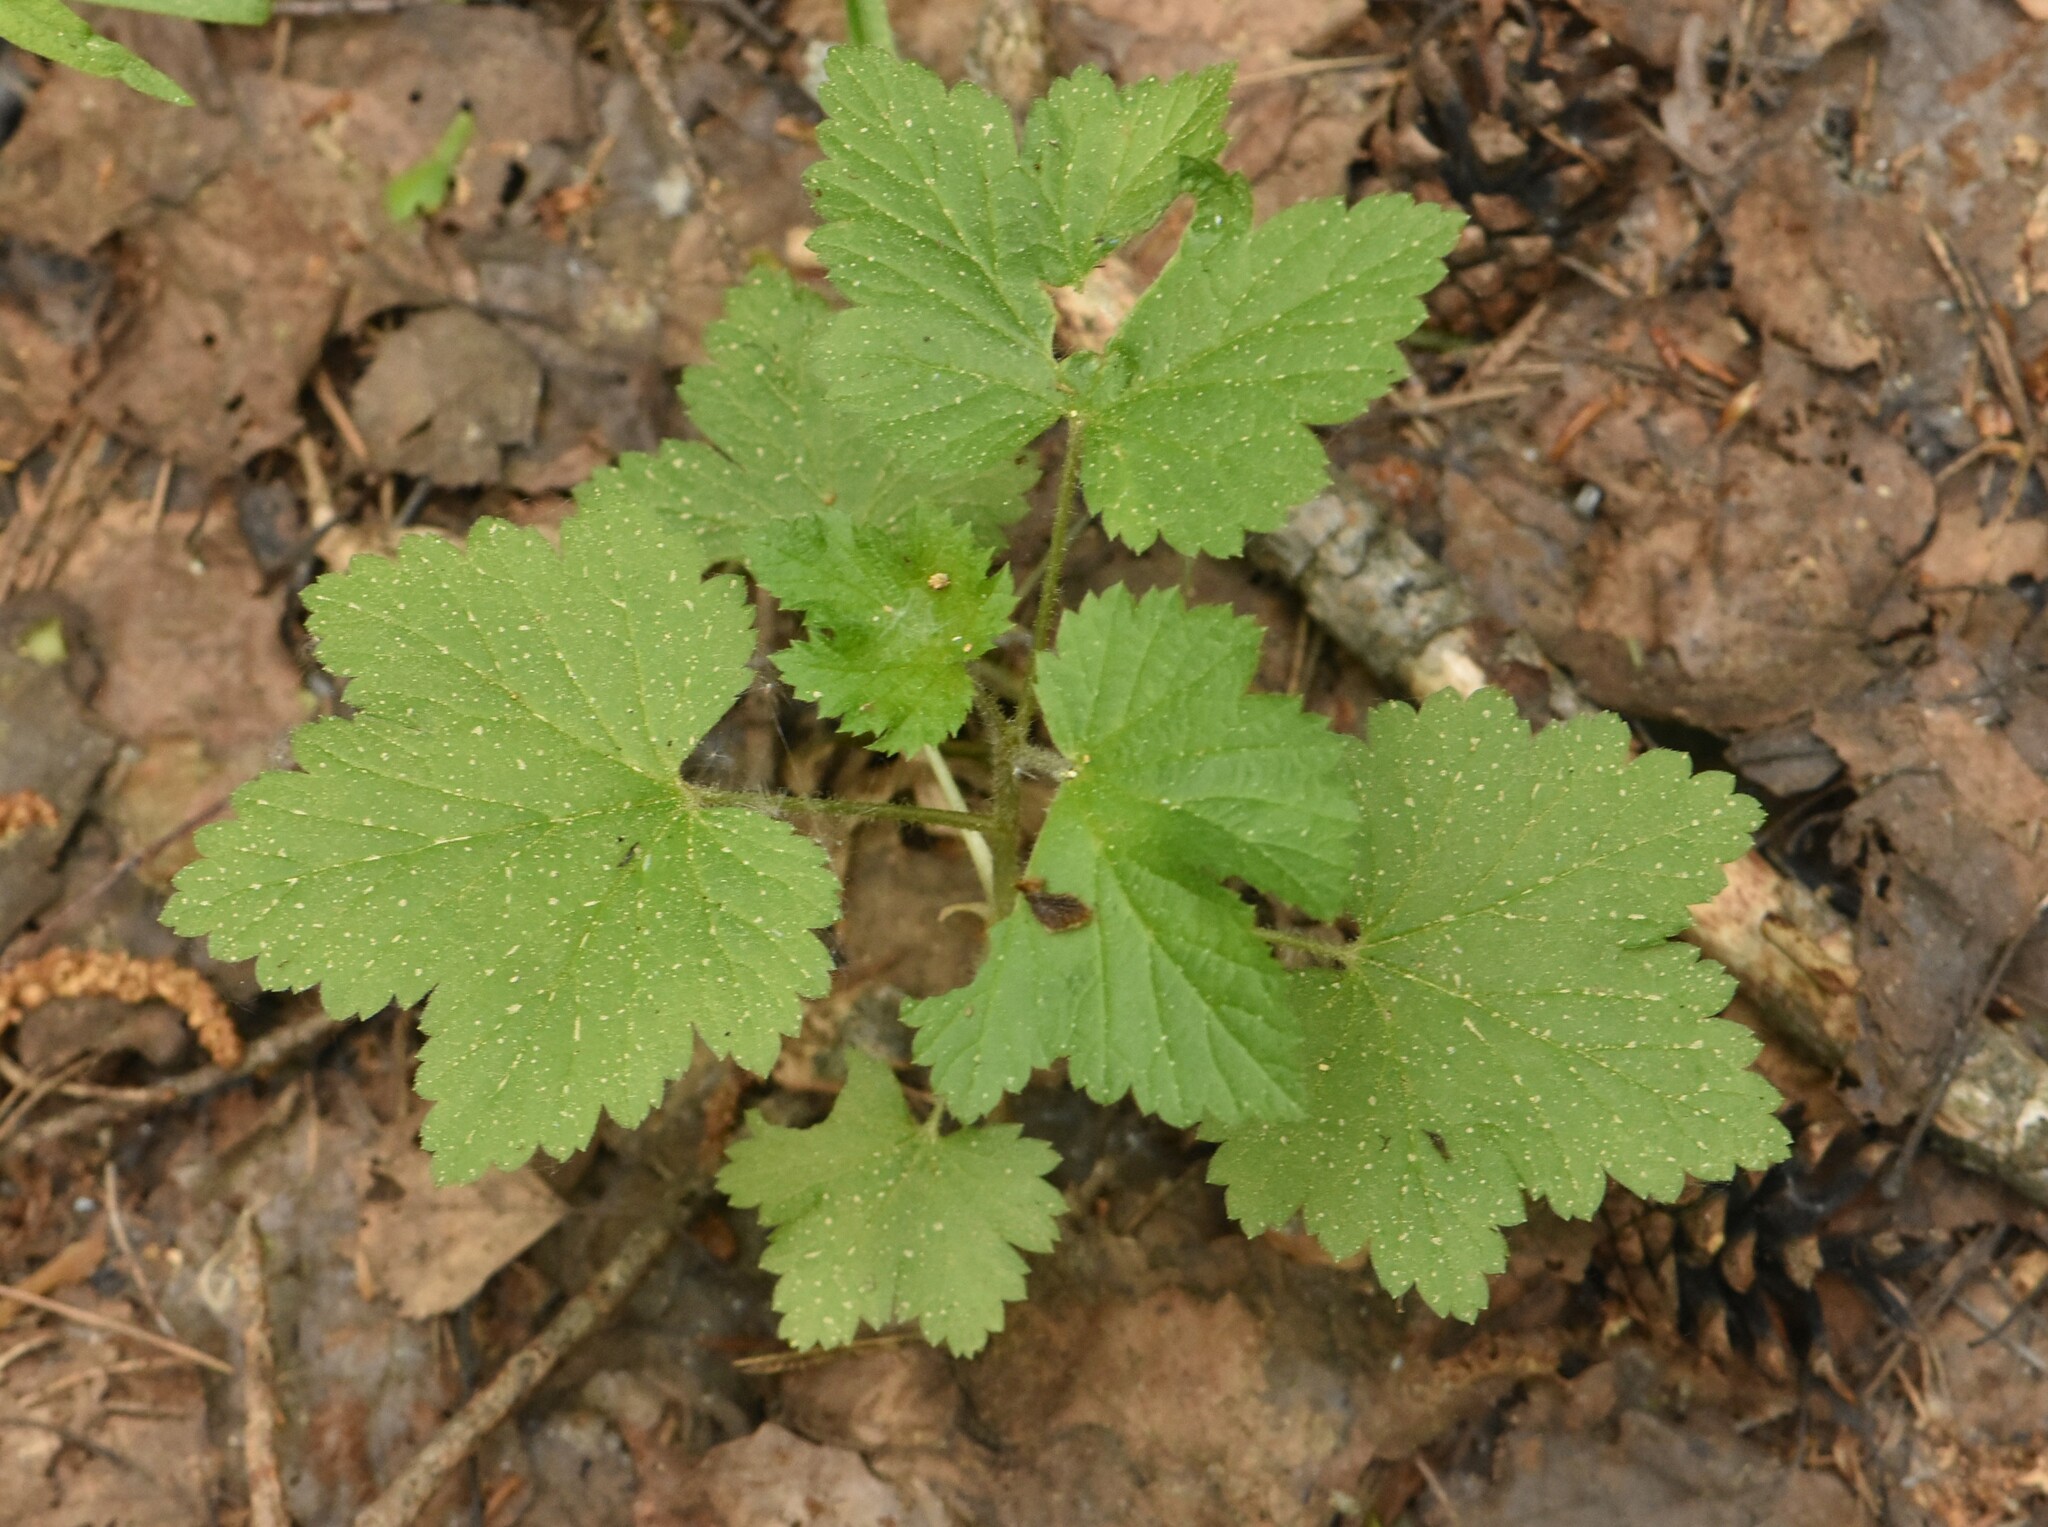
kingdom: Plantae
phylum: Tracheophyta
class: Magnoliopsida
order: Saxifragales
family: Grossulariaceae
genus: Ribes
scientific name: Ribes spicatum
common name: Downy currant
